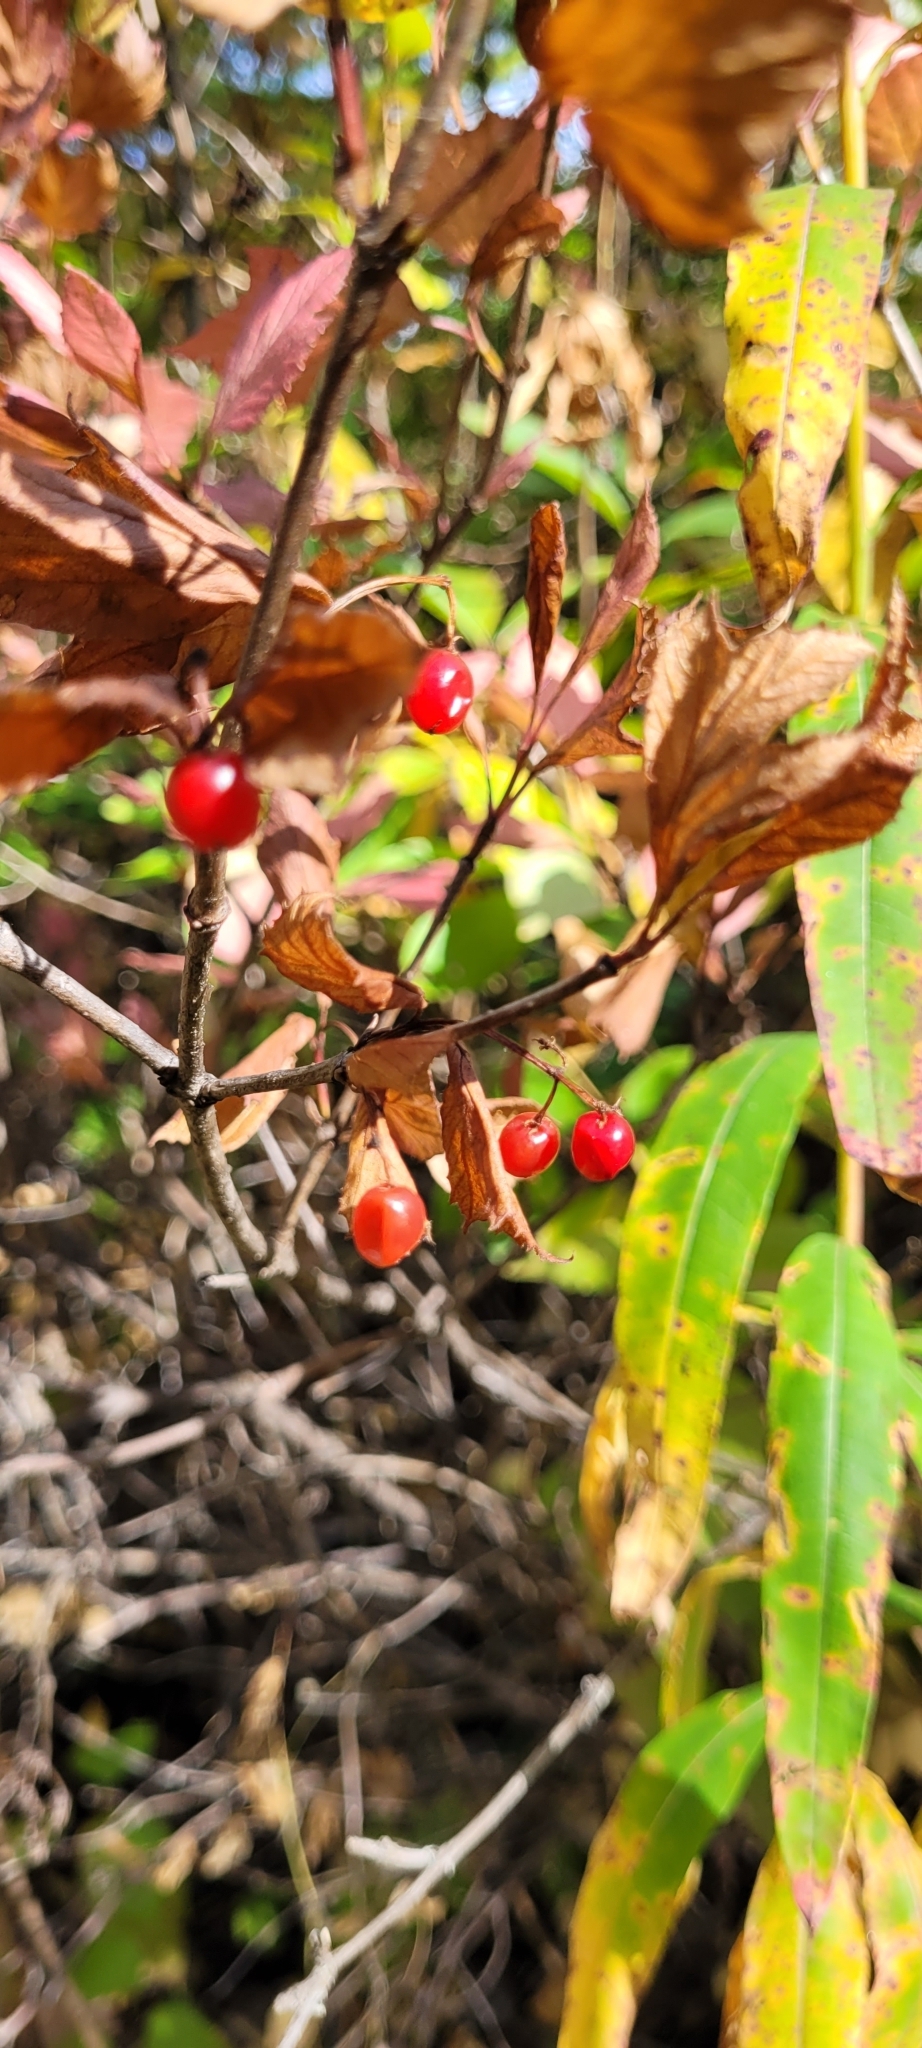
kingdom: Plantae
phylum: Tracheophyta
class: Magnoliopsida
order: Dipsacales
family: Viburnaceae
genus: Viburnum
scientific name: Viburnum edule
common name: Mooseberry
